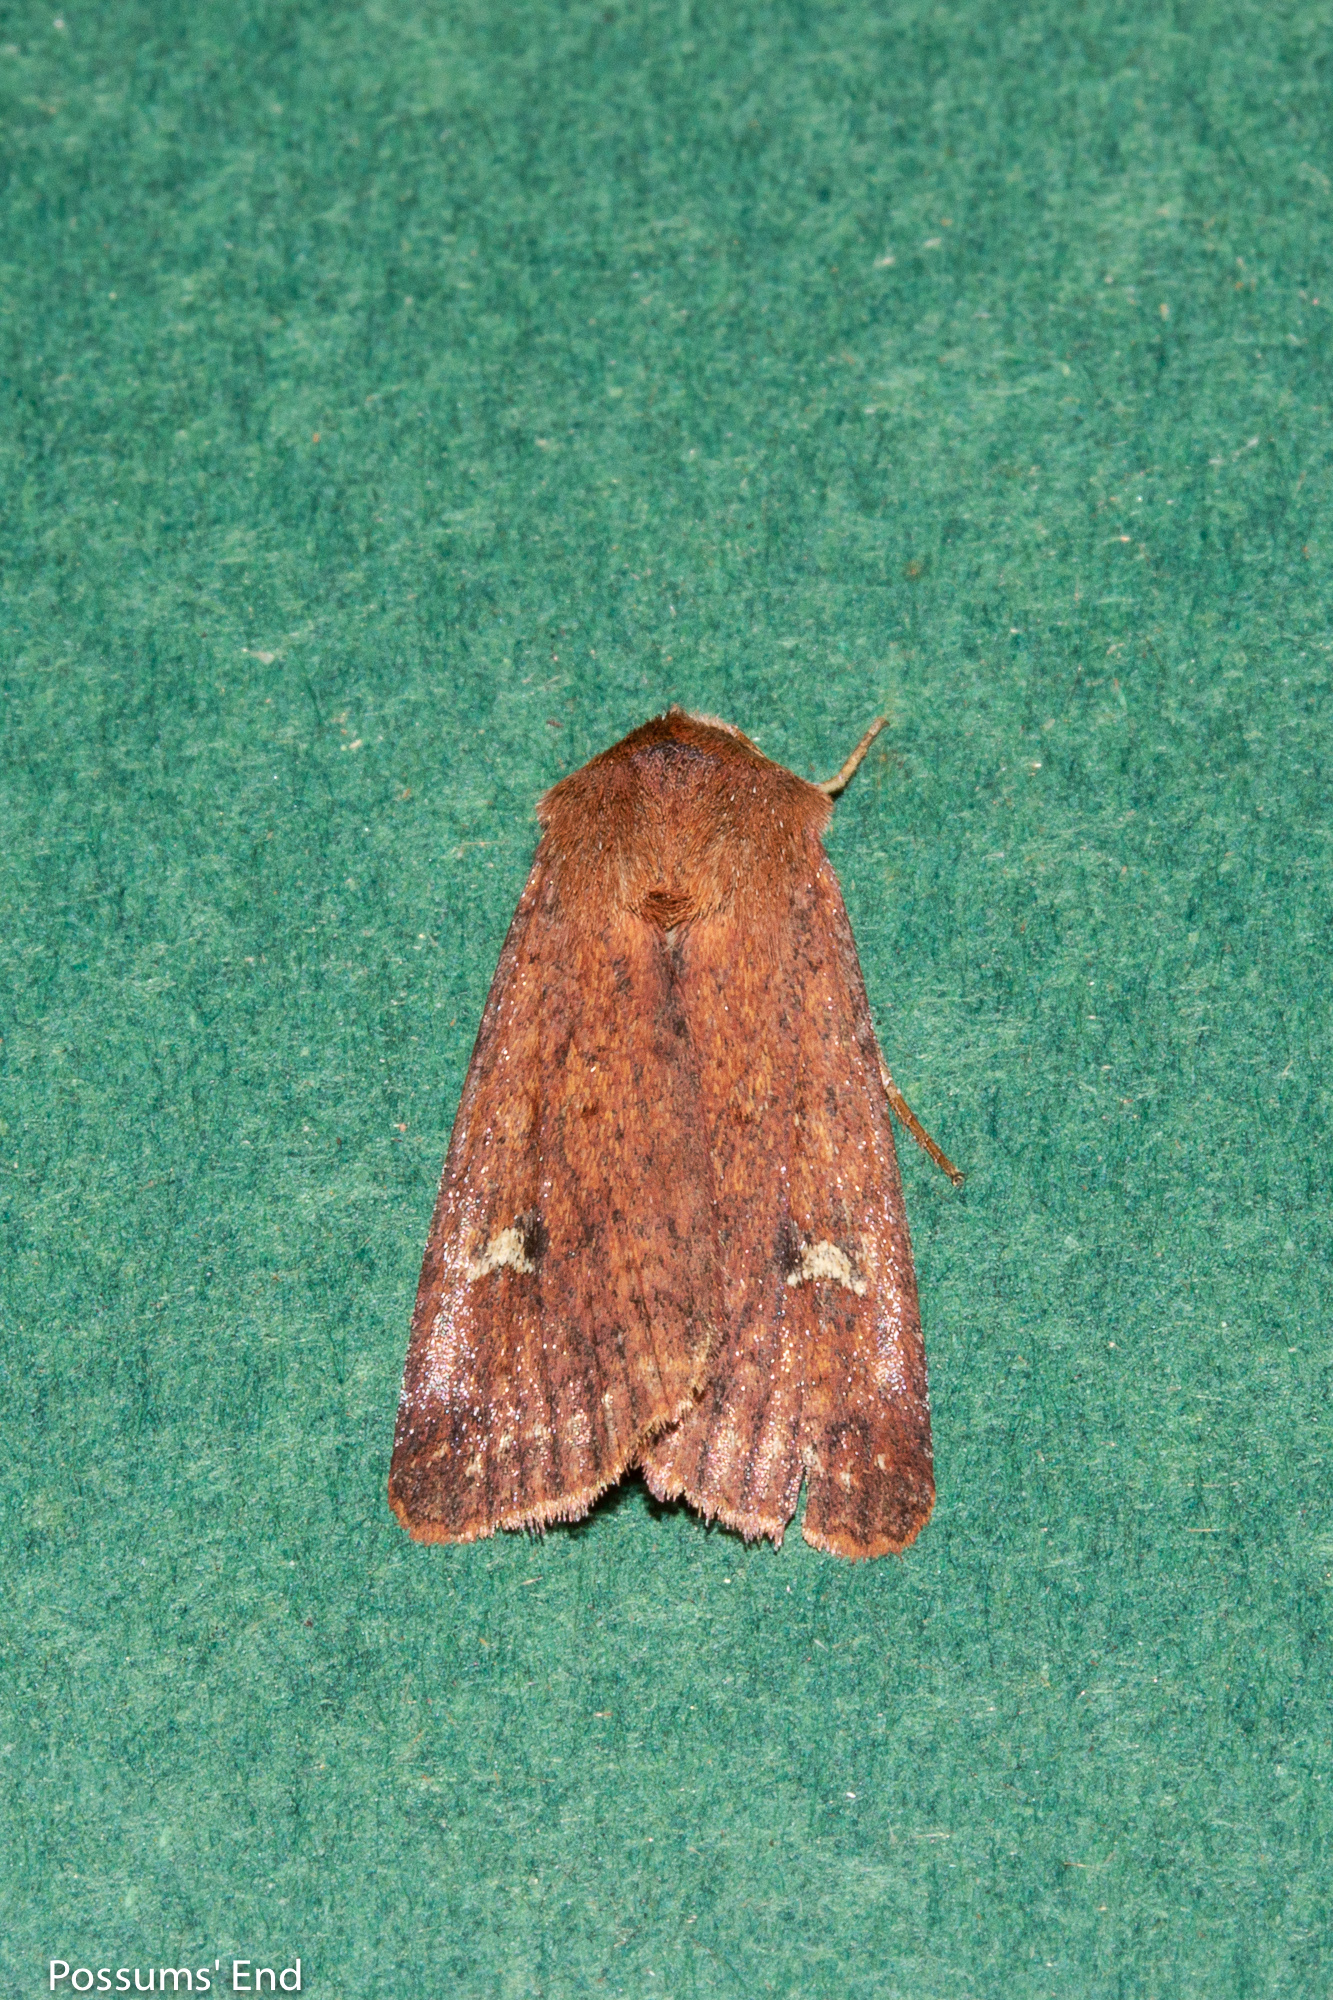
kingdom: Animalia
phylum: Arthropoda
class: Insecta
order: Lepidoptera
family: Noctuidae
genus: Diarsia
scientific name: Diarsia intermixta
